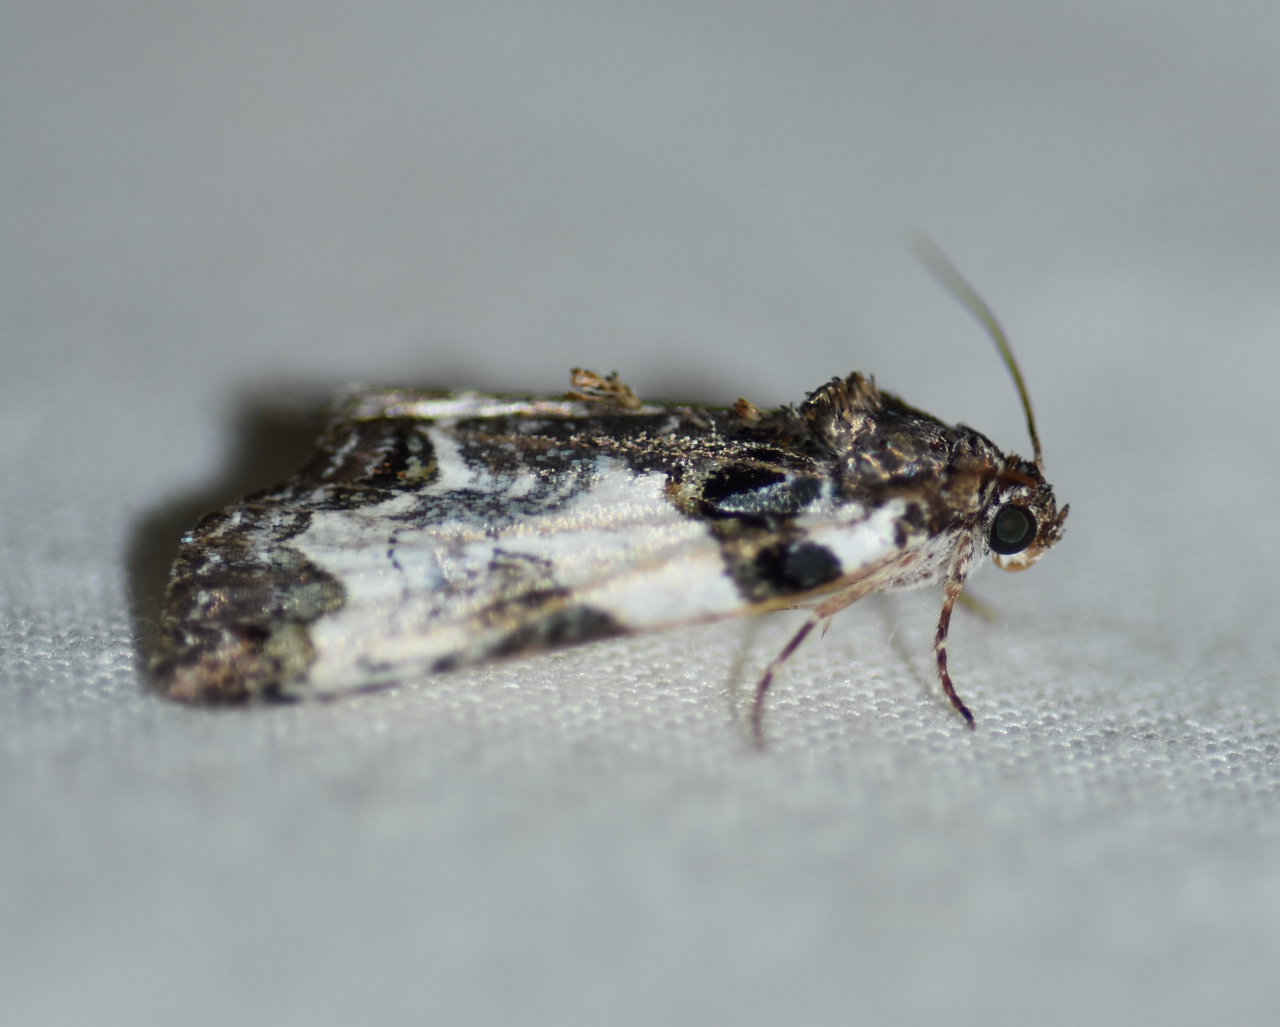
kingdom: Animalia
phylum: Arthropoda
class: Insecta
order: Lepidoptera
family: Noctuidae
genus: Cerma
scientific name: Cerma cerintha
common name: Tufted bird-dropping moth
